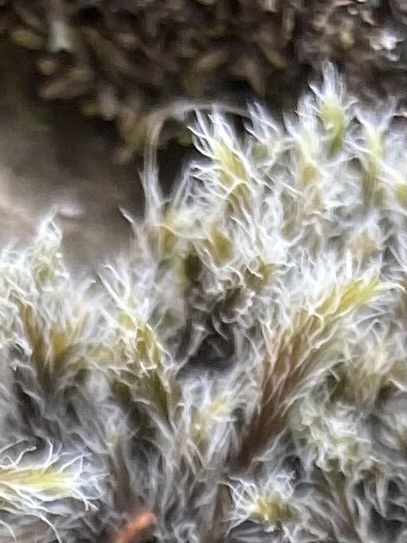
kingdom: Plantae
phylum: Bryophyta
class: Bryopsida
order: Grimmiales
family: Grimmiaceae
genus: Racomitrium
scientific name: Racomitrium lanuginosum
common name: Hoary rock moss
